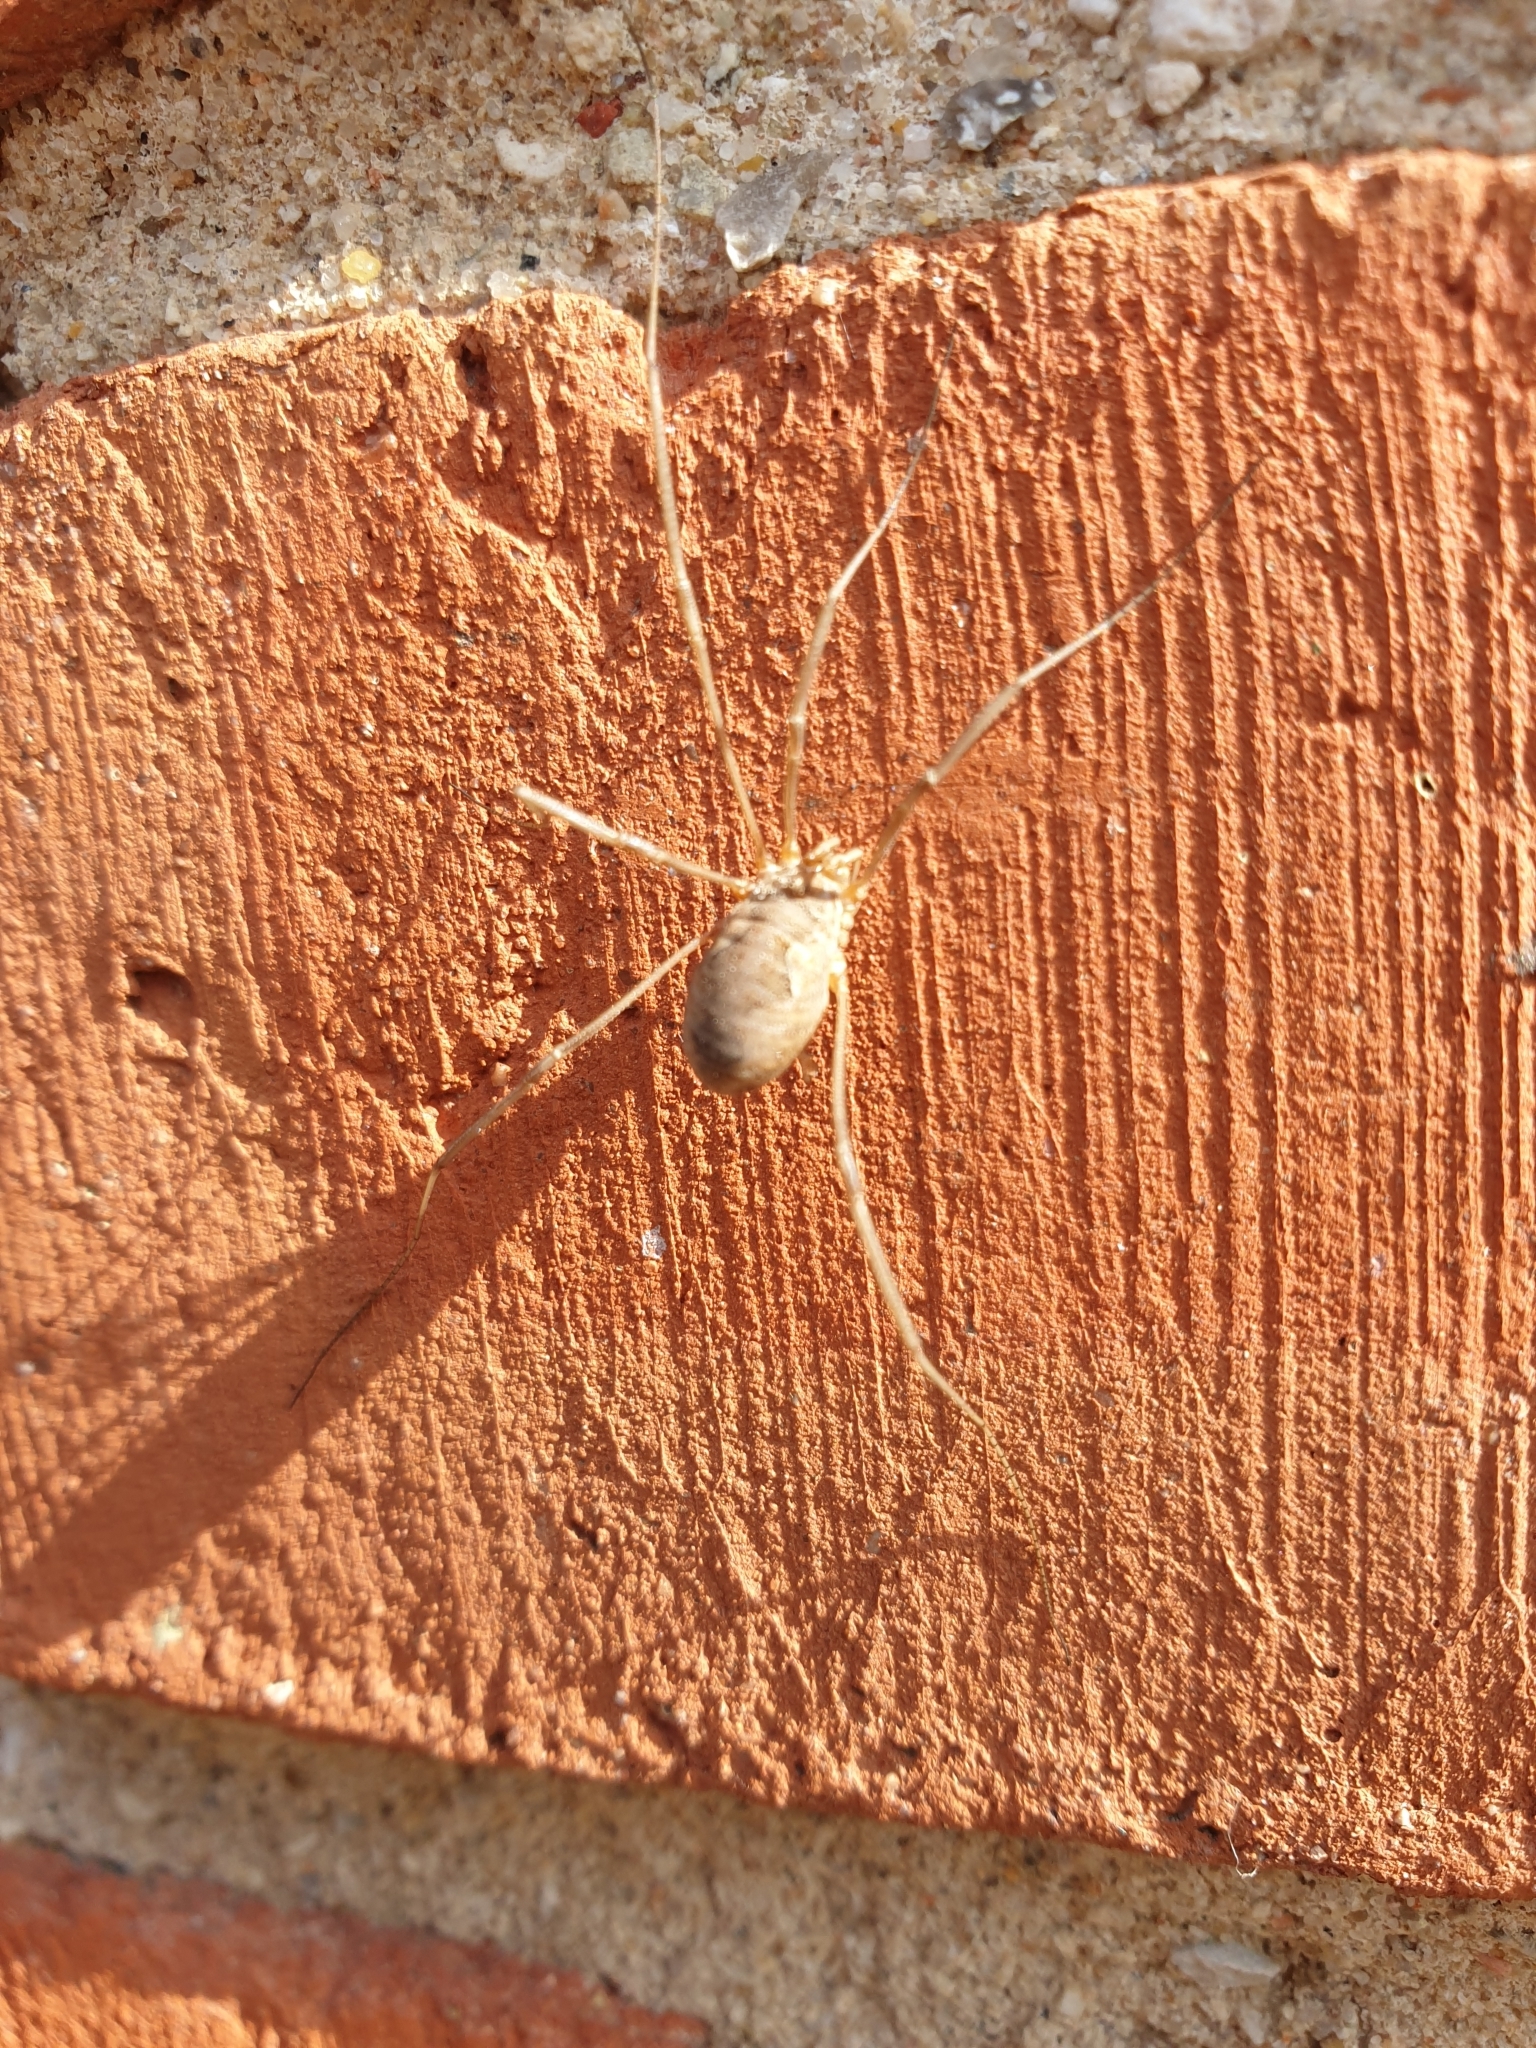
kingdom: Animalia
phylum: Arthropoda
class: Arachnida
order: Opiliones
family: Phalangiidae
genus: Phalangium
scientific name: Phalangium opilio
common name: Daddy longleg
